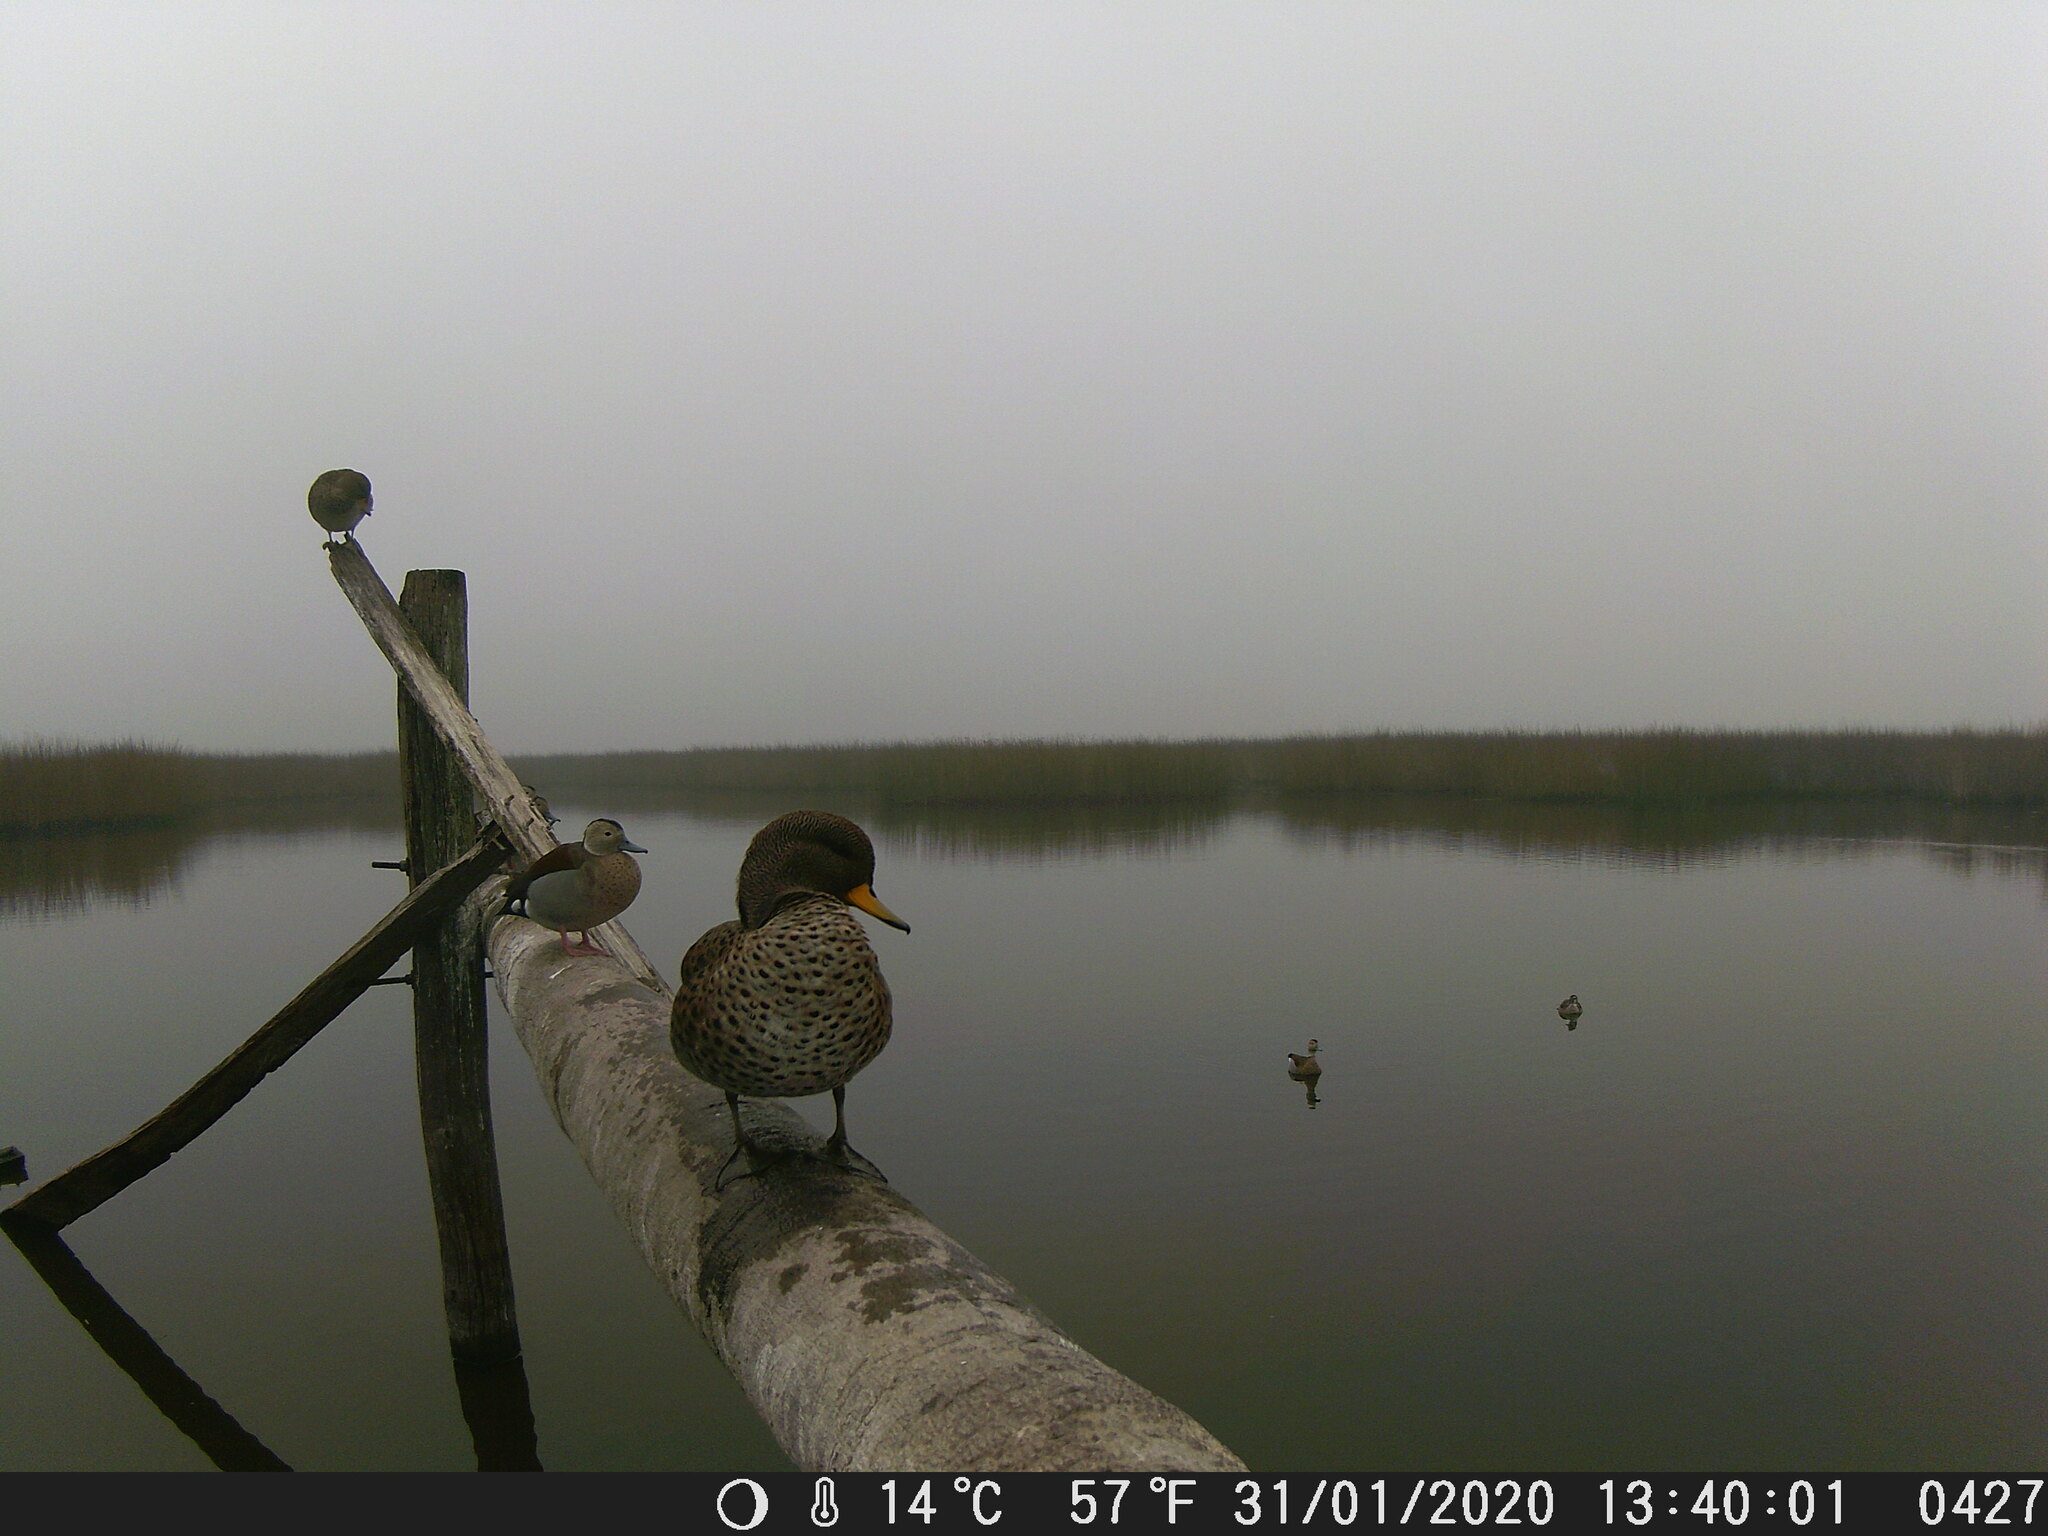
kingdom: Animalia
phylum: Chordata
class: Aves
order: Anseriformes
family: Anatidae
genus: Anas
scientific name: Anas flavirostris
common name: Yellow-billed teal
